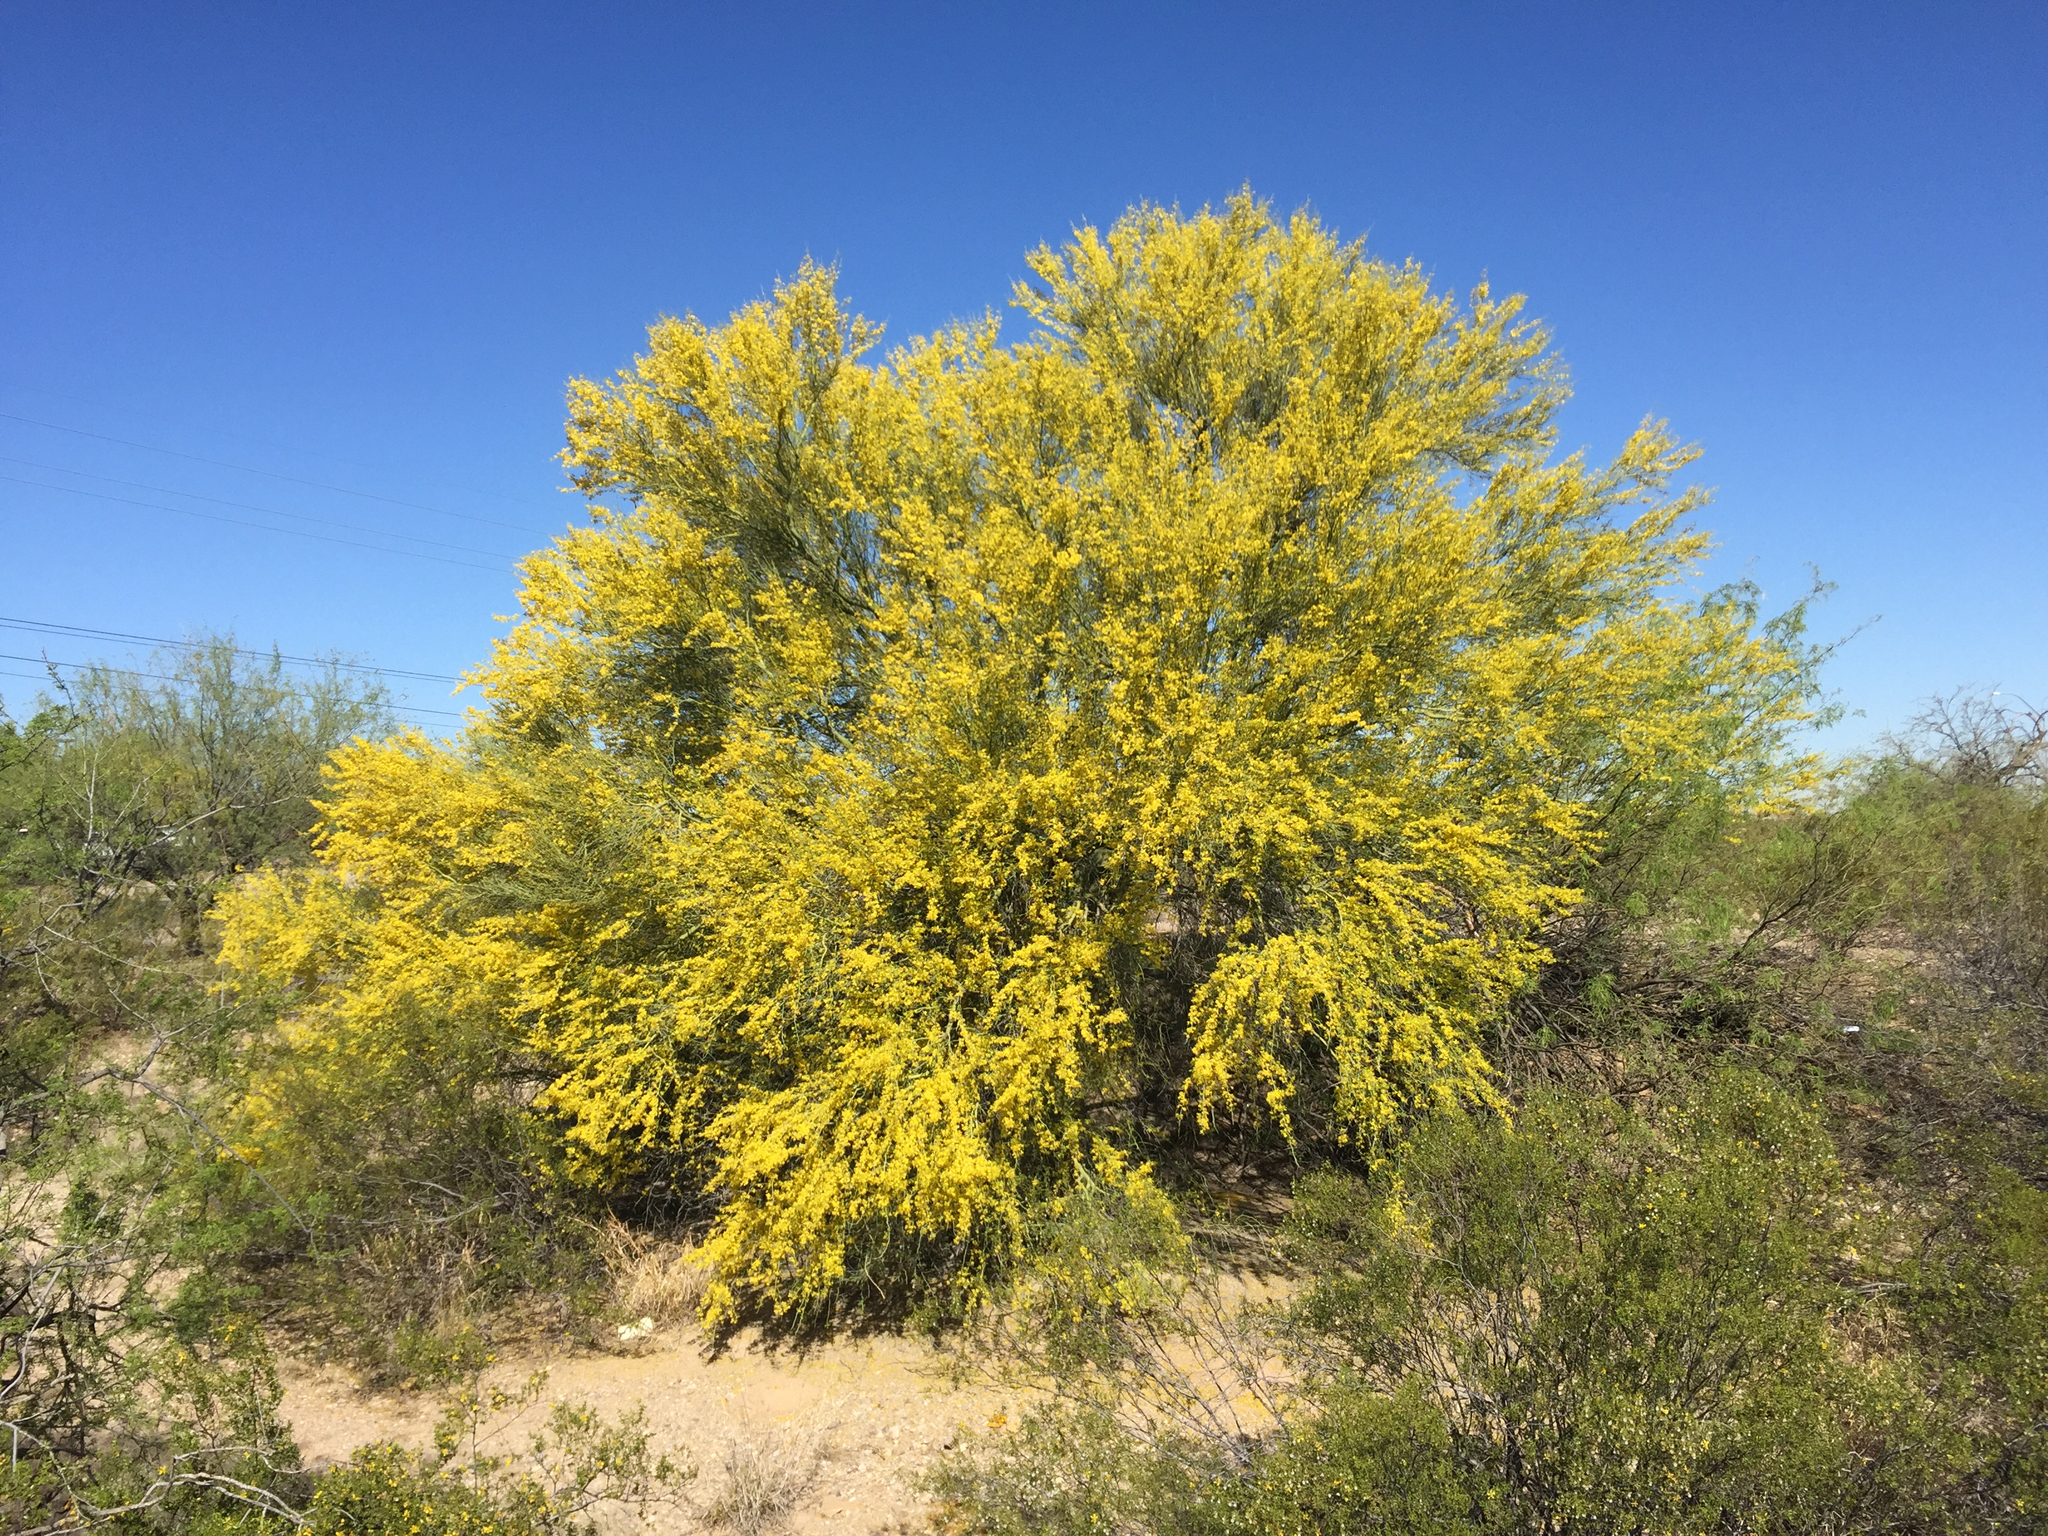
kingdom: Plantae
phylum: Tracheophyta
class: Magnoliopsida
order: Fabales
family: Fabaceae
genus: Parkinsonia
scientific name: Parkinsonia florida
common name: Blue paloverde
